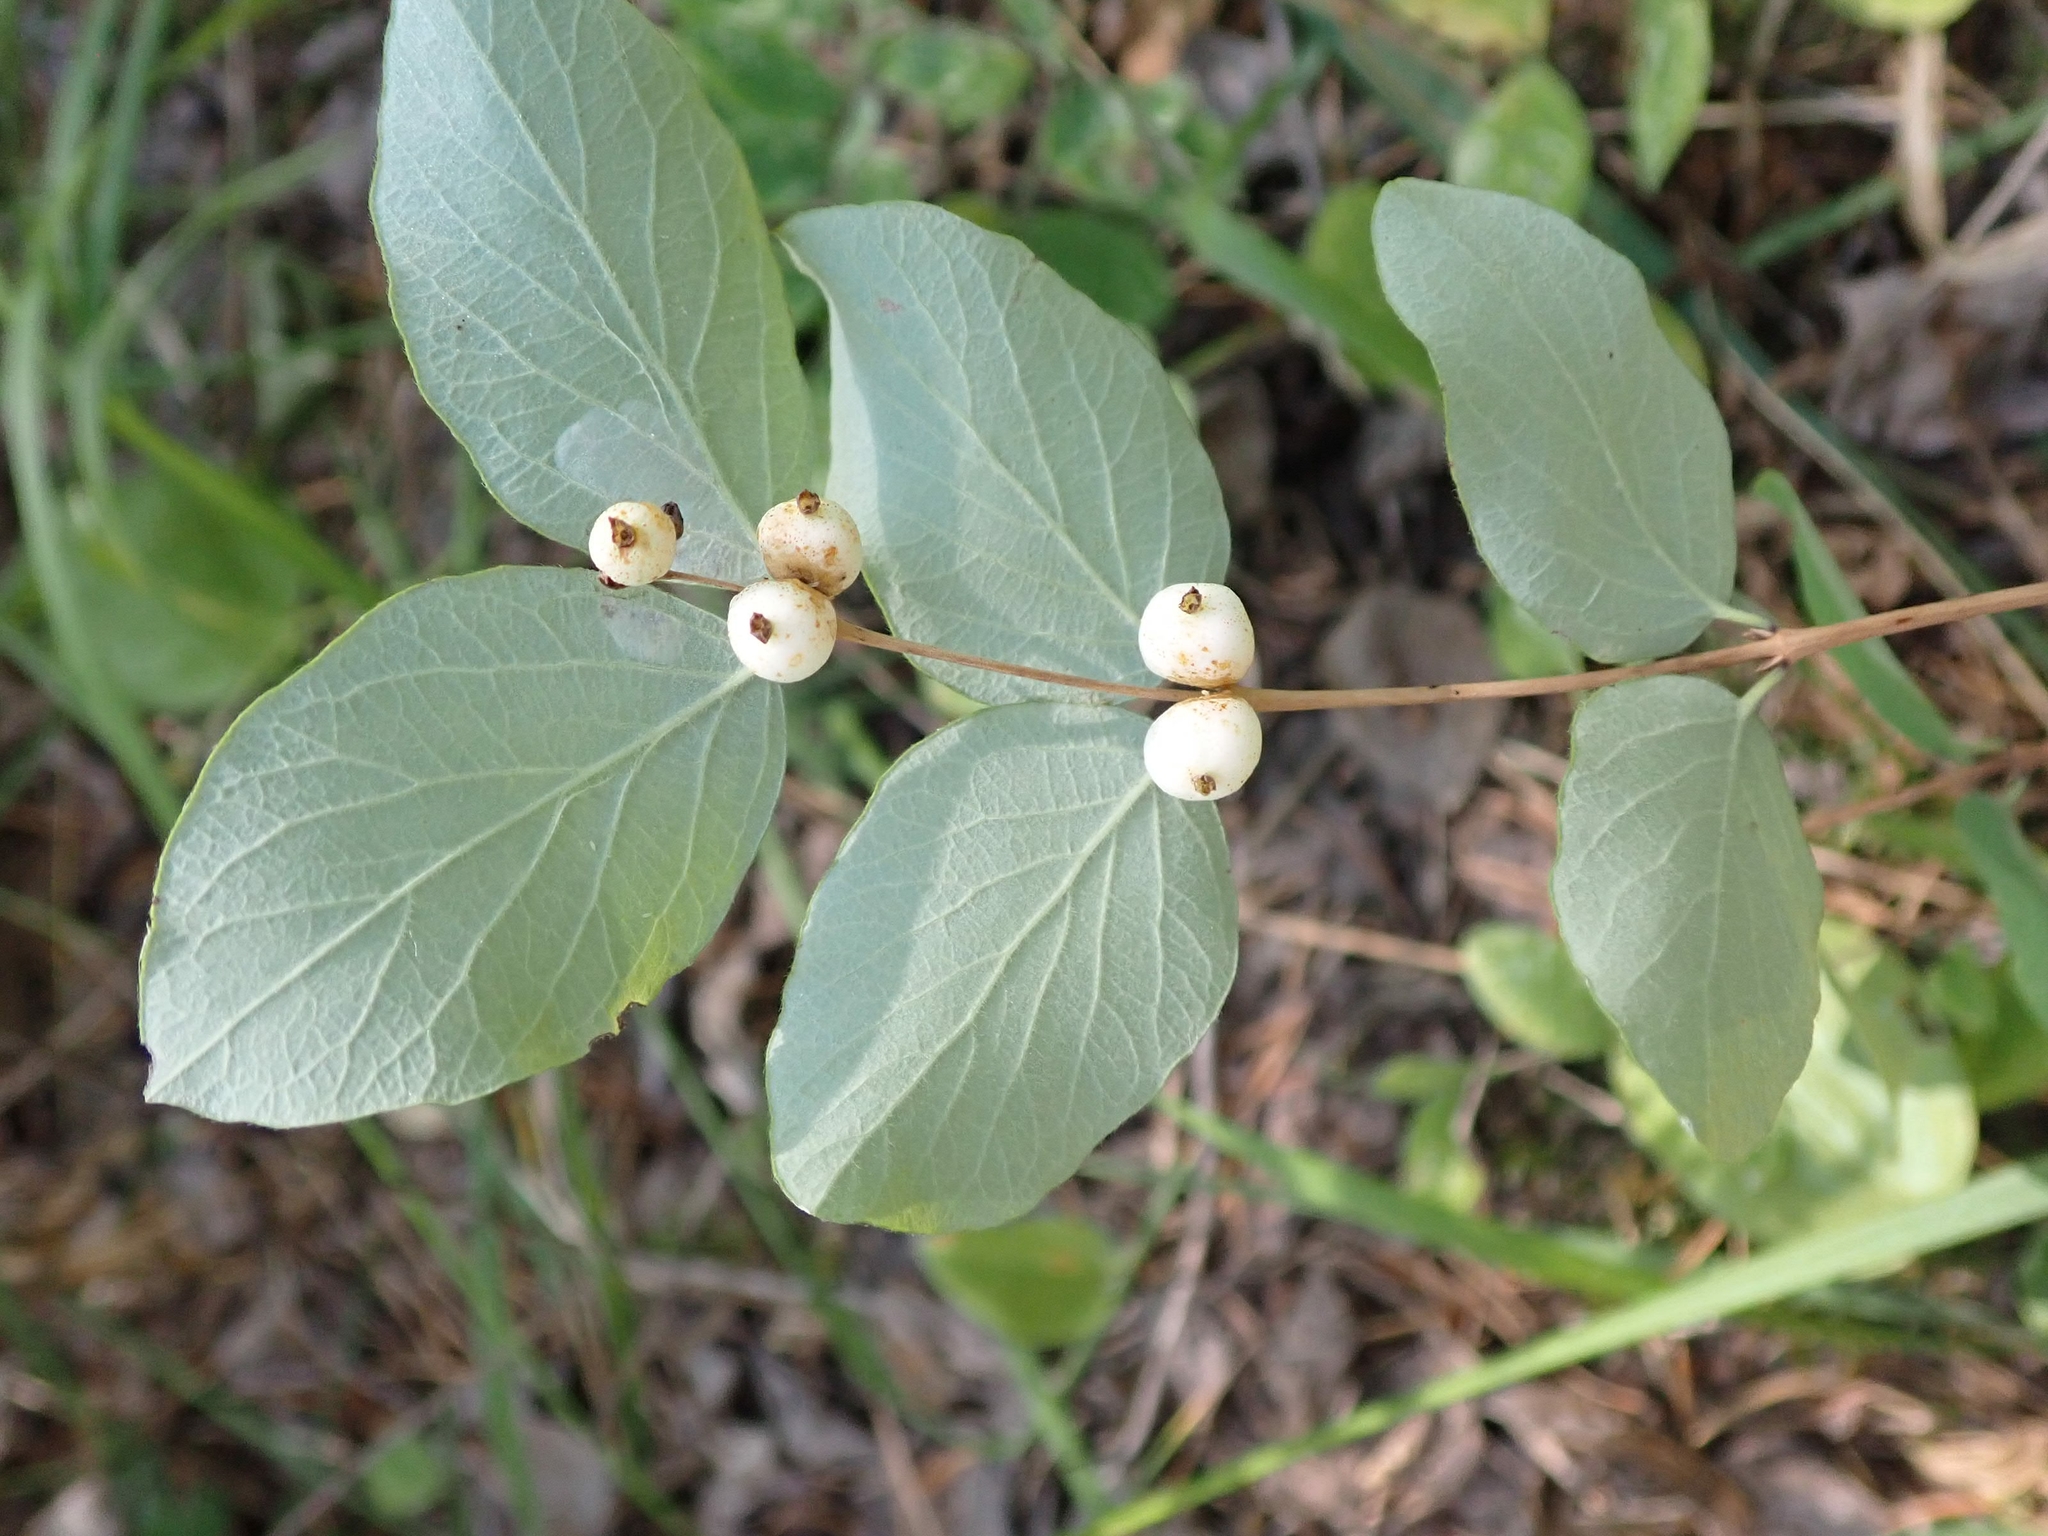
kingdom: Plantae
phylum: Tracheophyta
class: Magnoliopsida
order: Dipsacales
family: Caprifoliaceae
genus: Symphoricarpos
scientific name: Symphoricarpos albus
